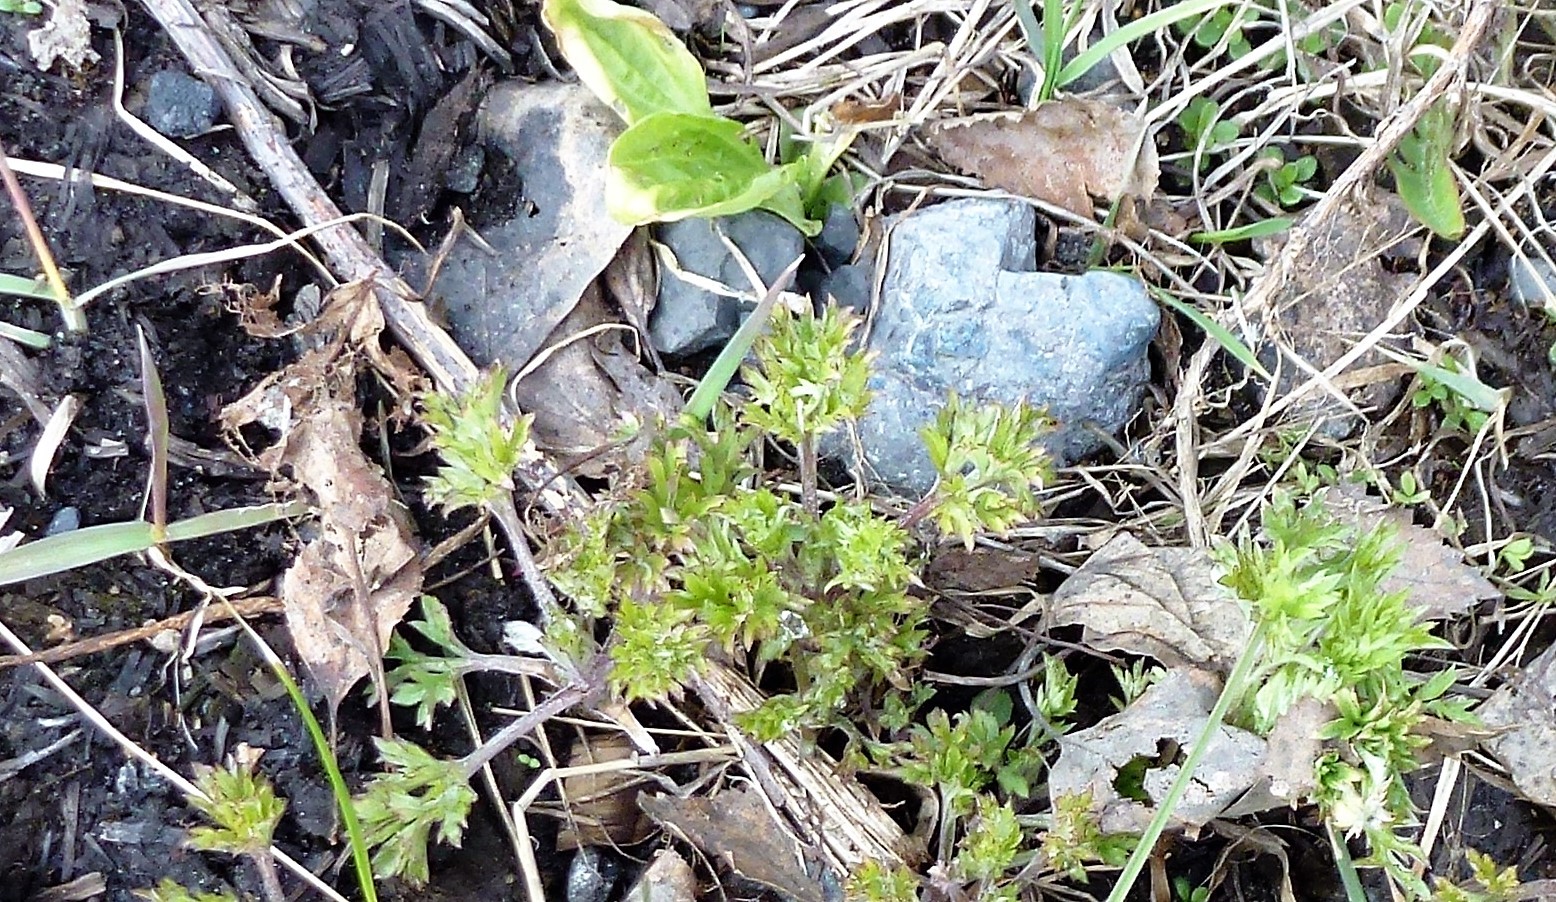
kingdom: Plantae
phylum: Tracheophyta
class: Magnoliopsida
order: Asterales
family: Asteraceae
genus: Artemisia
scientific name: Artemisia vulgaris
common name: Mugwort
